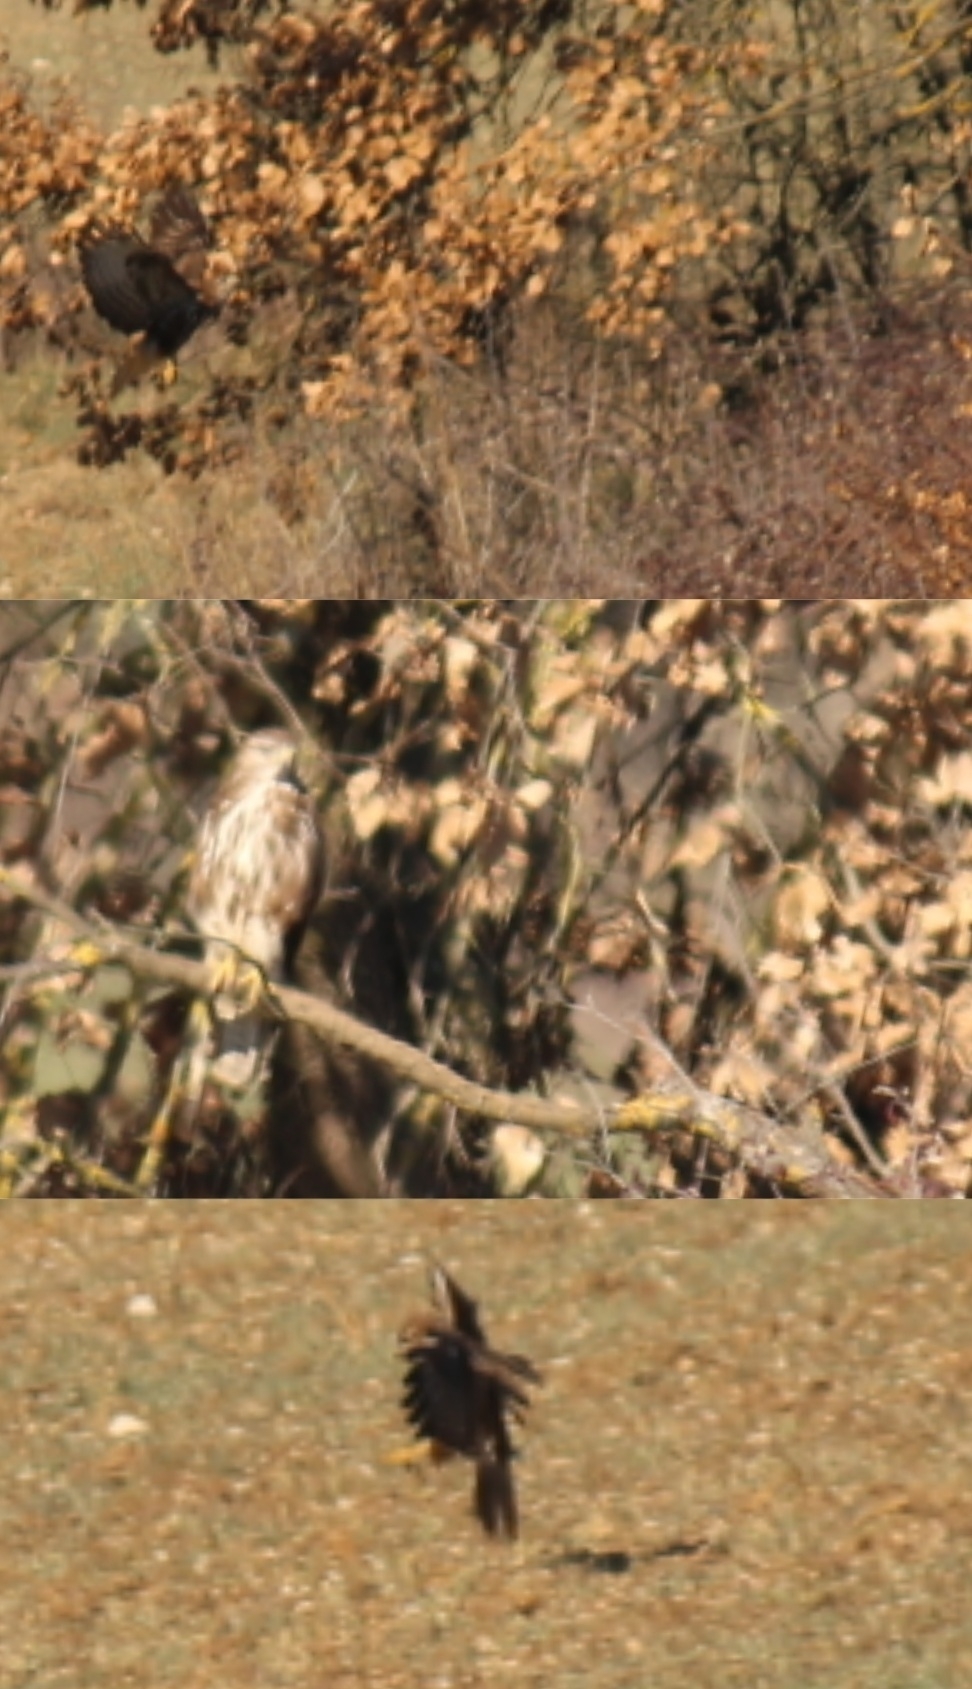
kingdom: Animalia
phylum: Chordata
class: Aves
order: Accipitriformes
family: Accipitridae
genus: Buteo
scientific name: Buteo buteo
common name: Common buzzard
